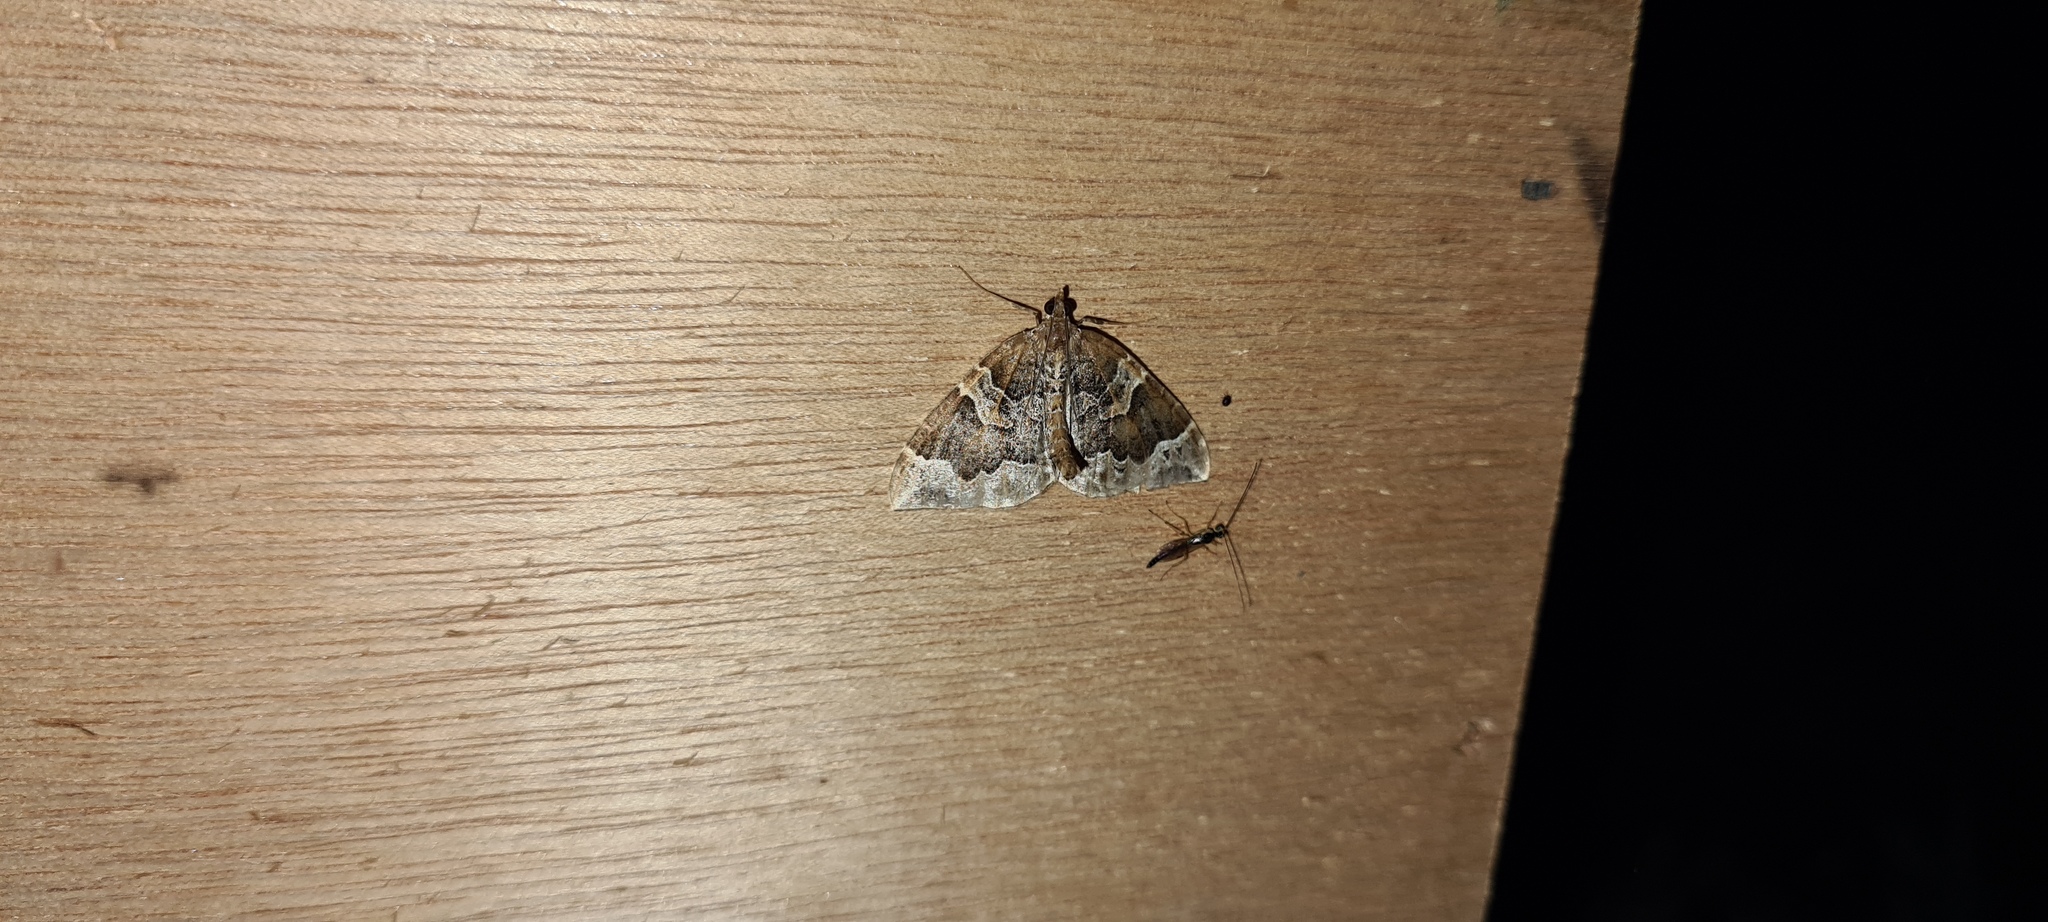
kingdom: Animalia
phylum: Arthropoda
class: Insecta
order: Lepidoptera
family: Geometridae
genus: Eulithis
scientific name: Eulithis prunata
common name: Phoenix
